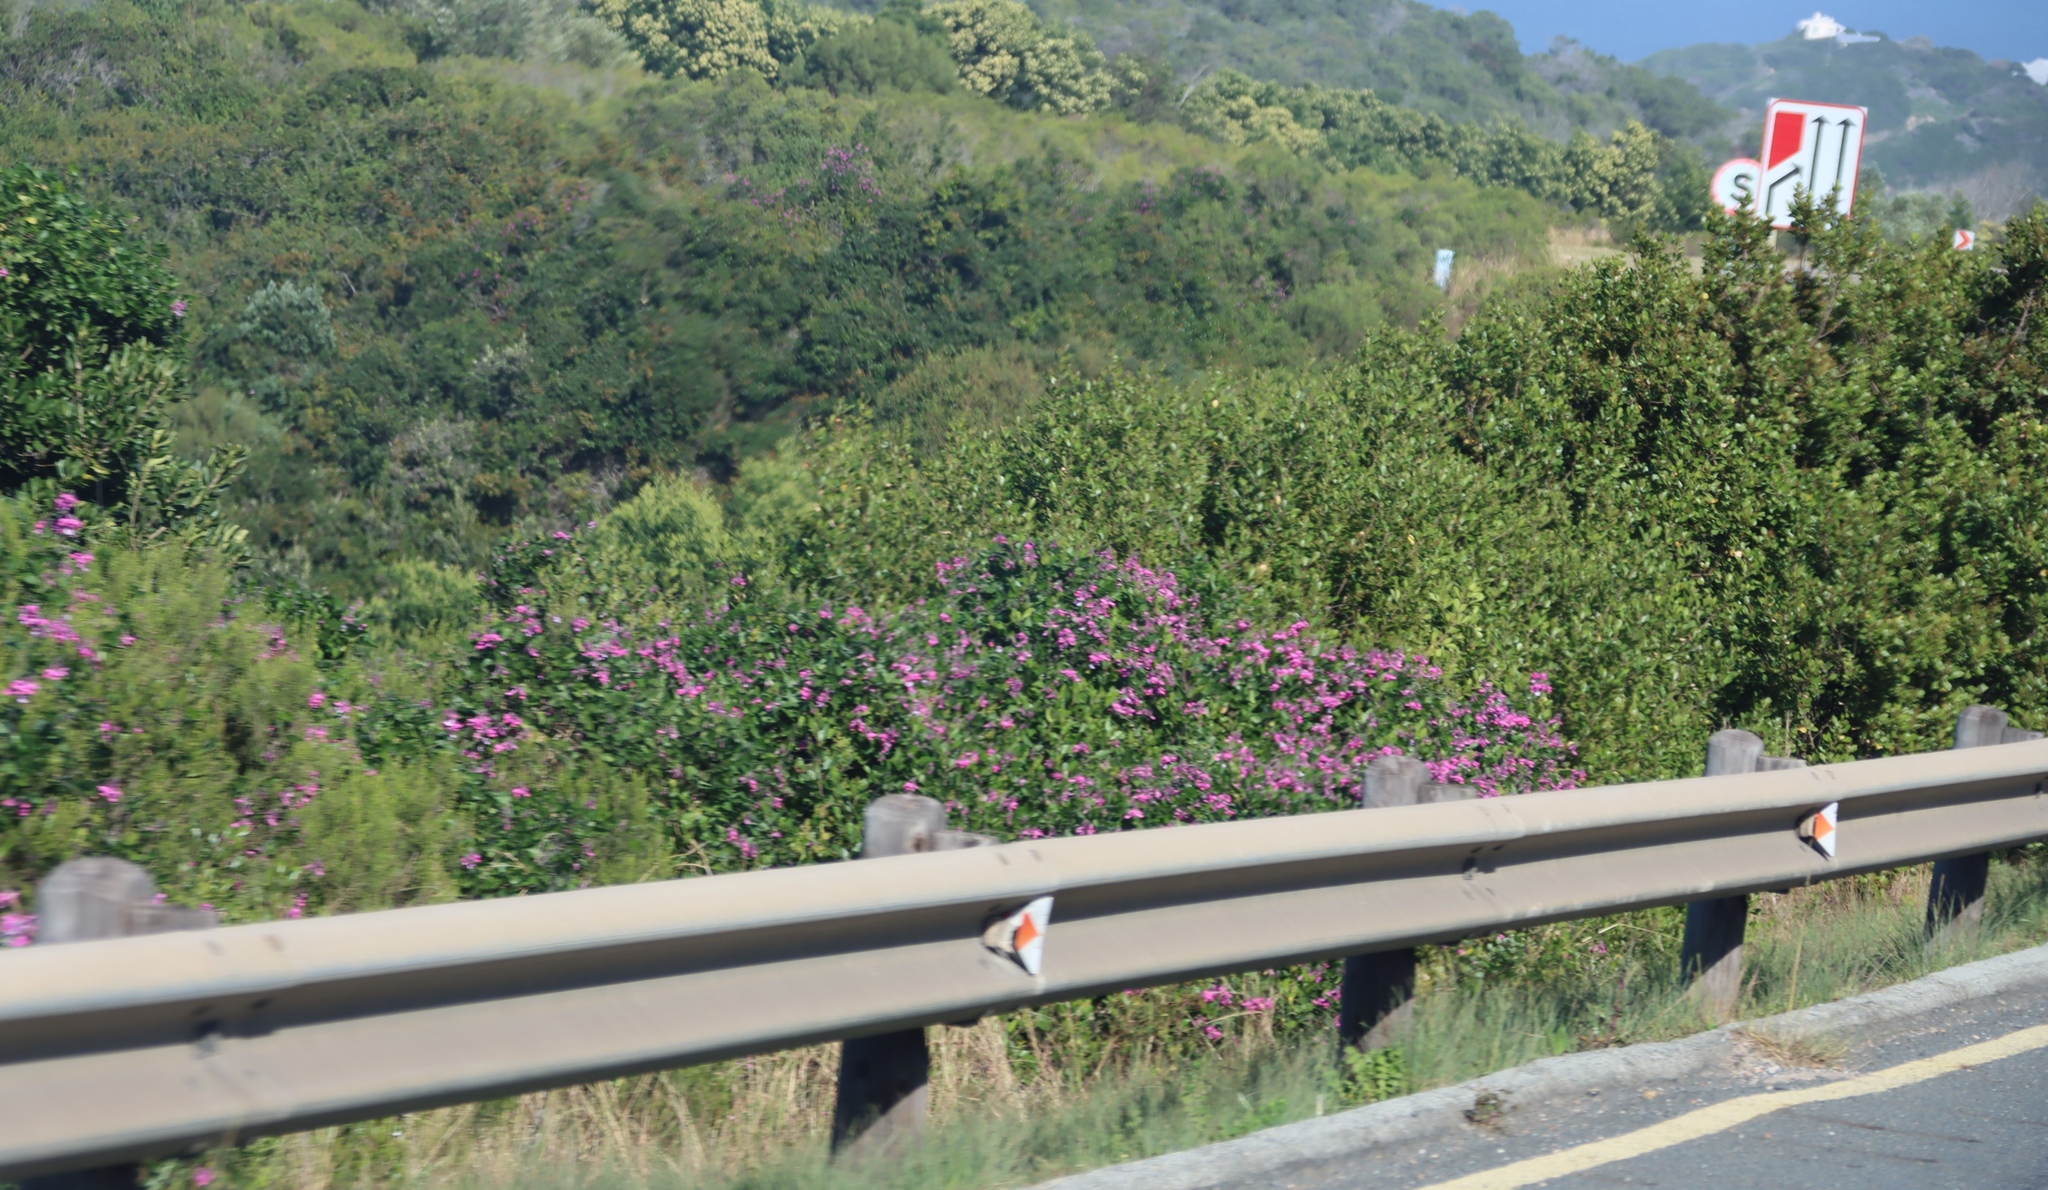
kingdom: Plantae
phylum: Tracheophyta
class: Magnoliopsida
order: Fabales
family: Polygalaceae
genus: Polygala
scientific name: Polygala myrtifolia
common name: Myrtle-leaf milkwort
